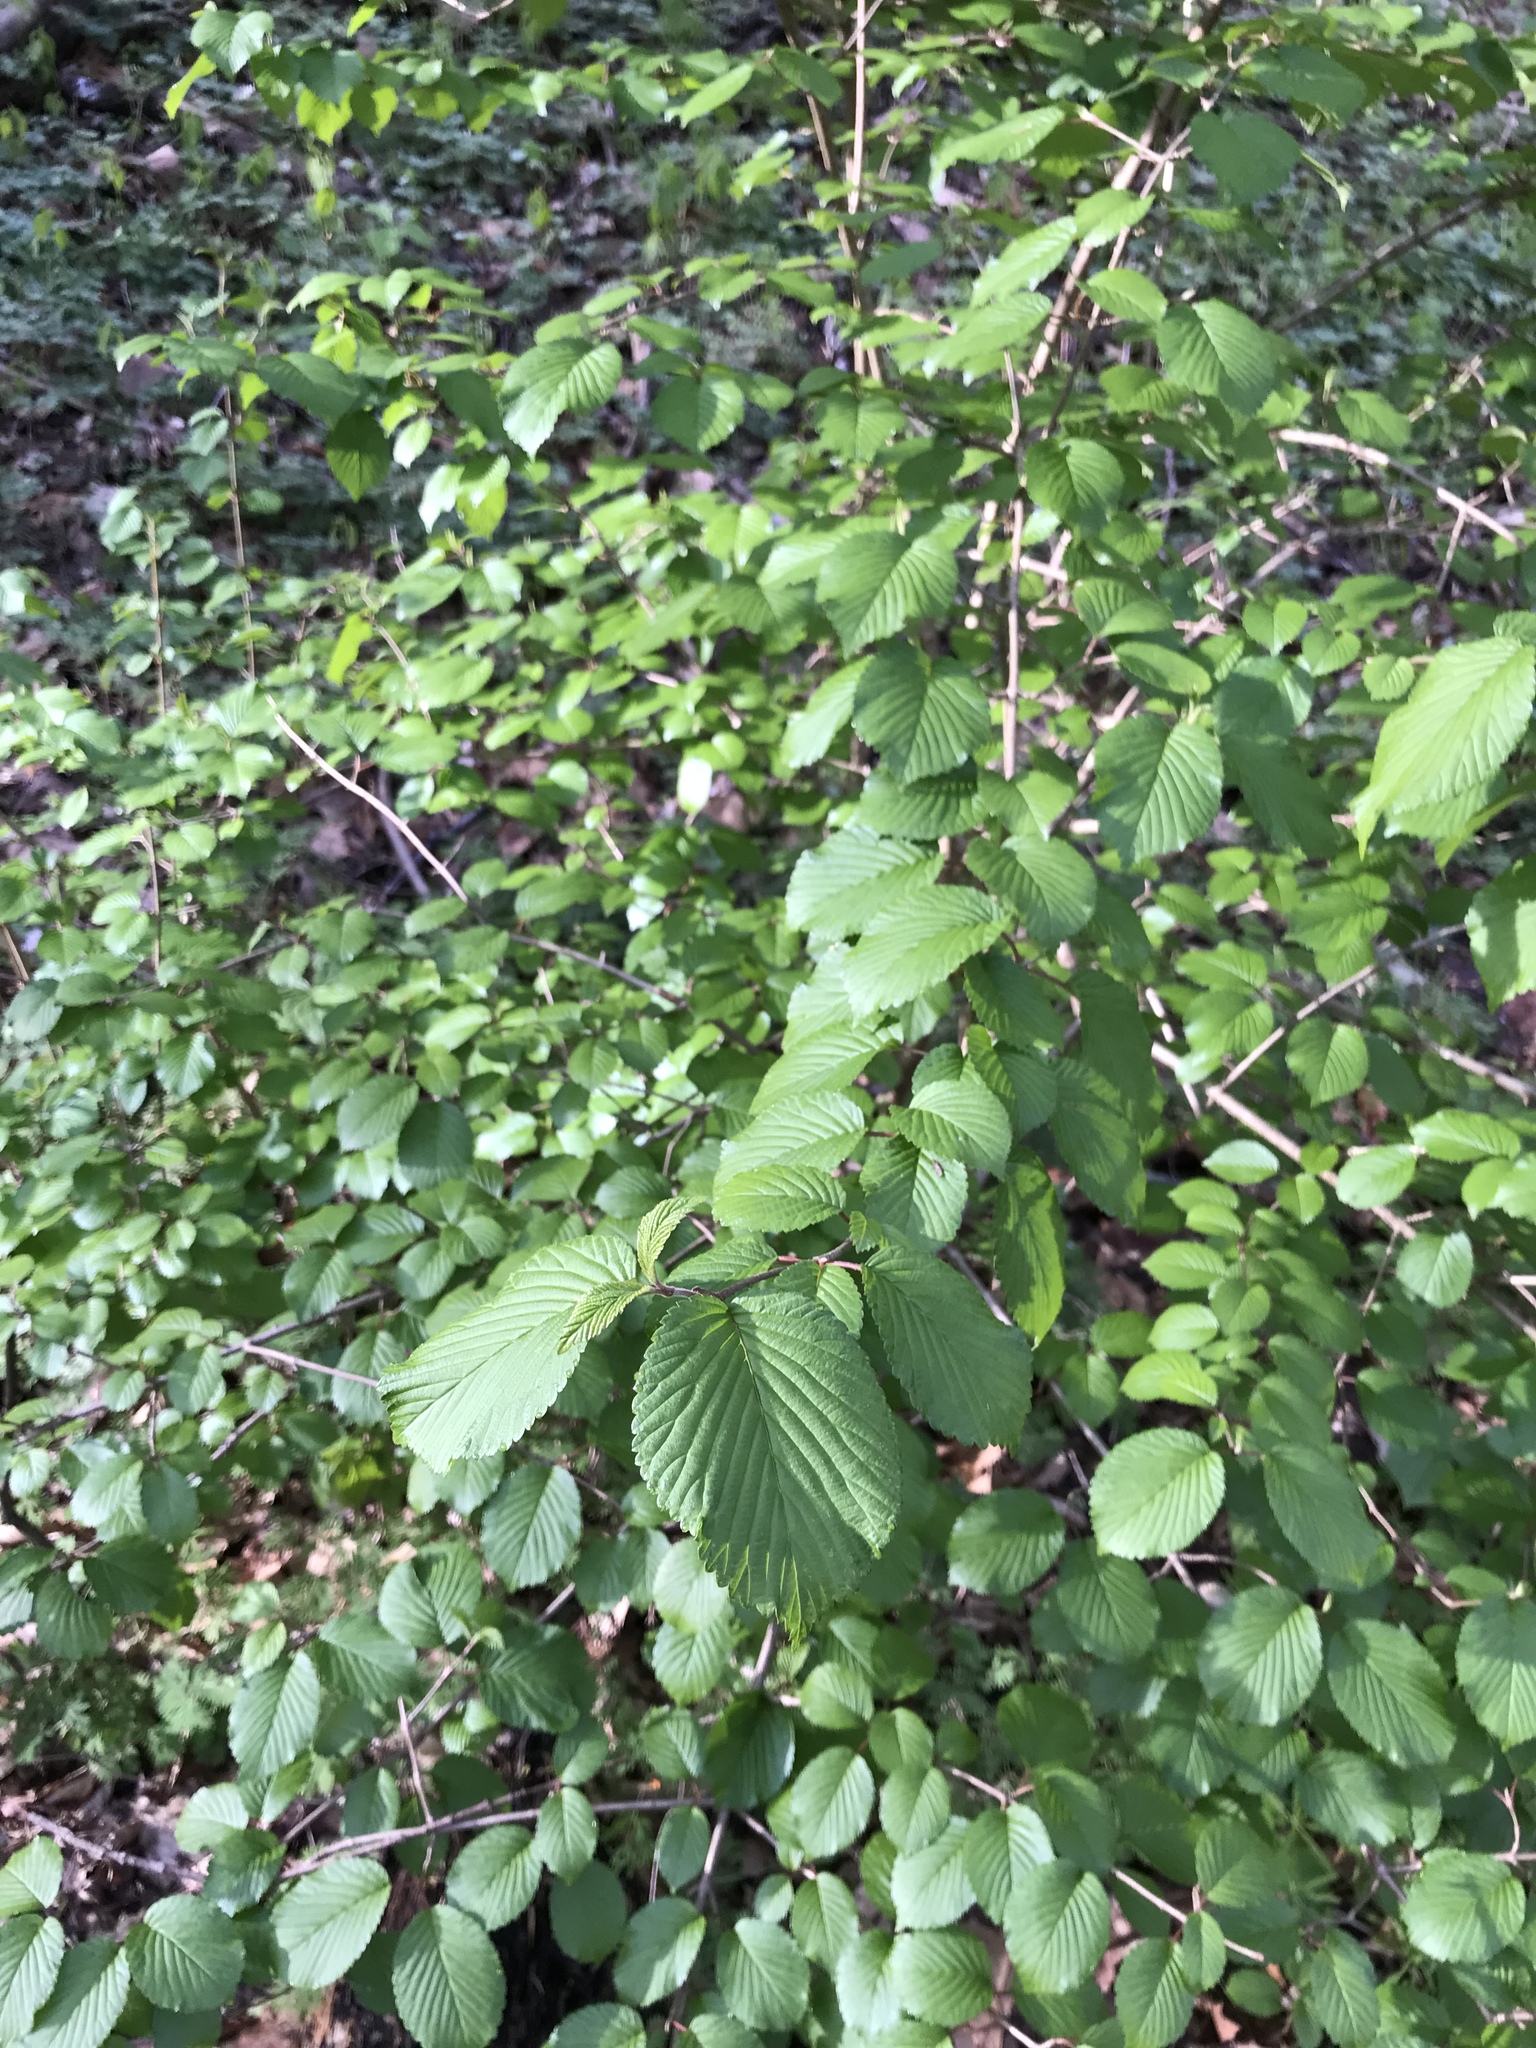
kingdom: Plantae
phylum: Tracheophyta
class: Magnoliopsida
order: Dipsacales
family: Viburnaceae
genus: Viburnum
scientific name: Viburnum plicatum
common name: Japanese snowball
